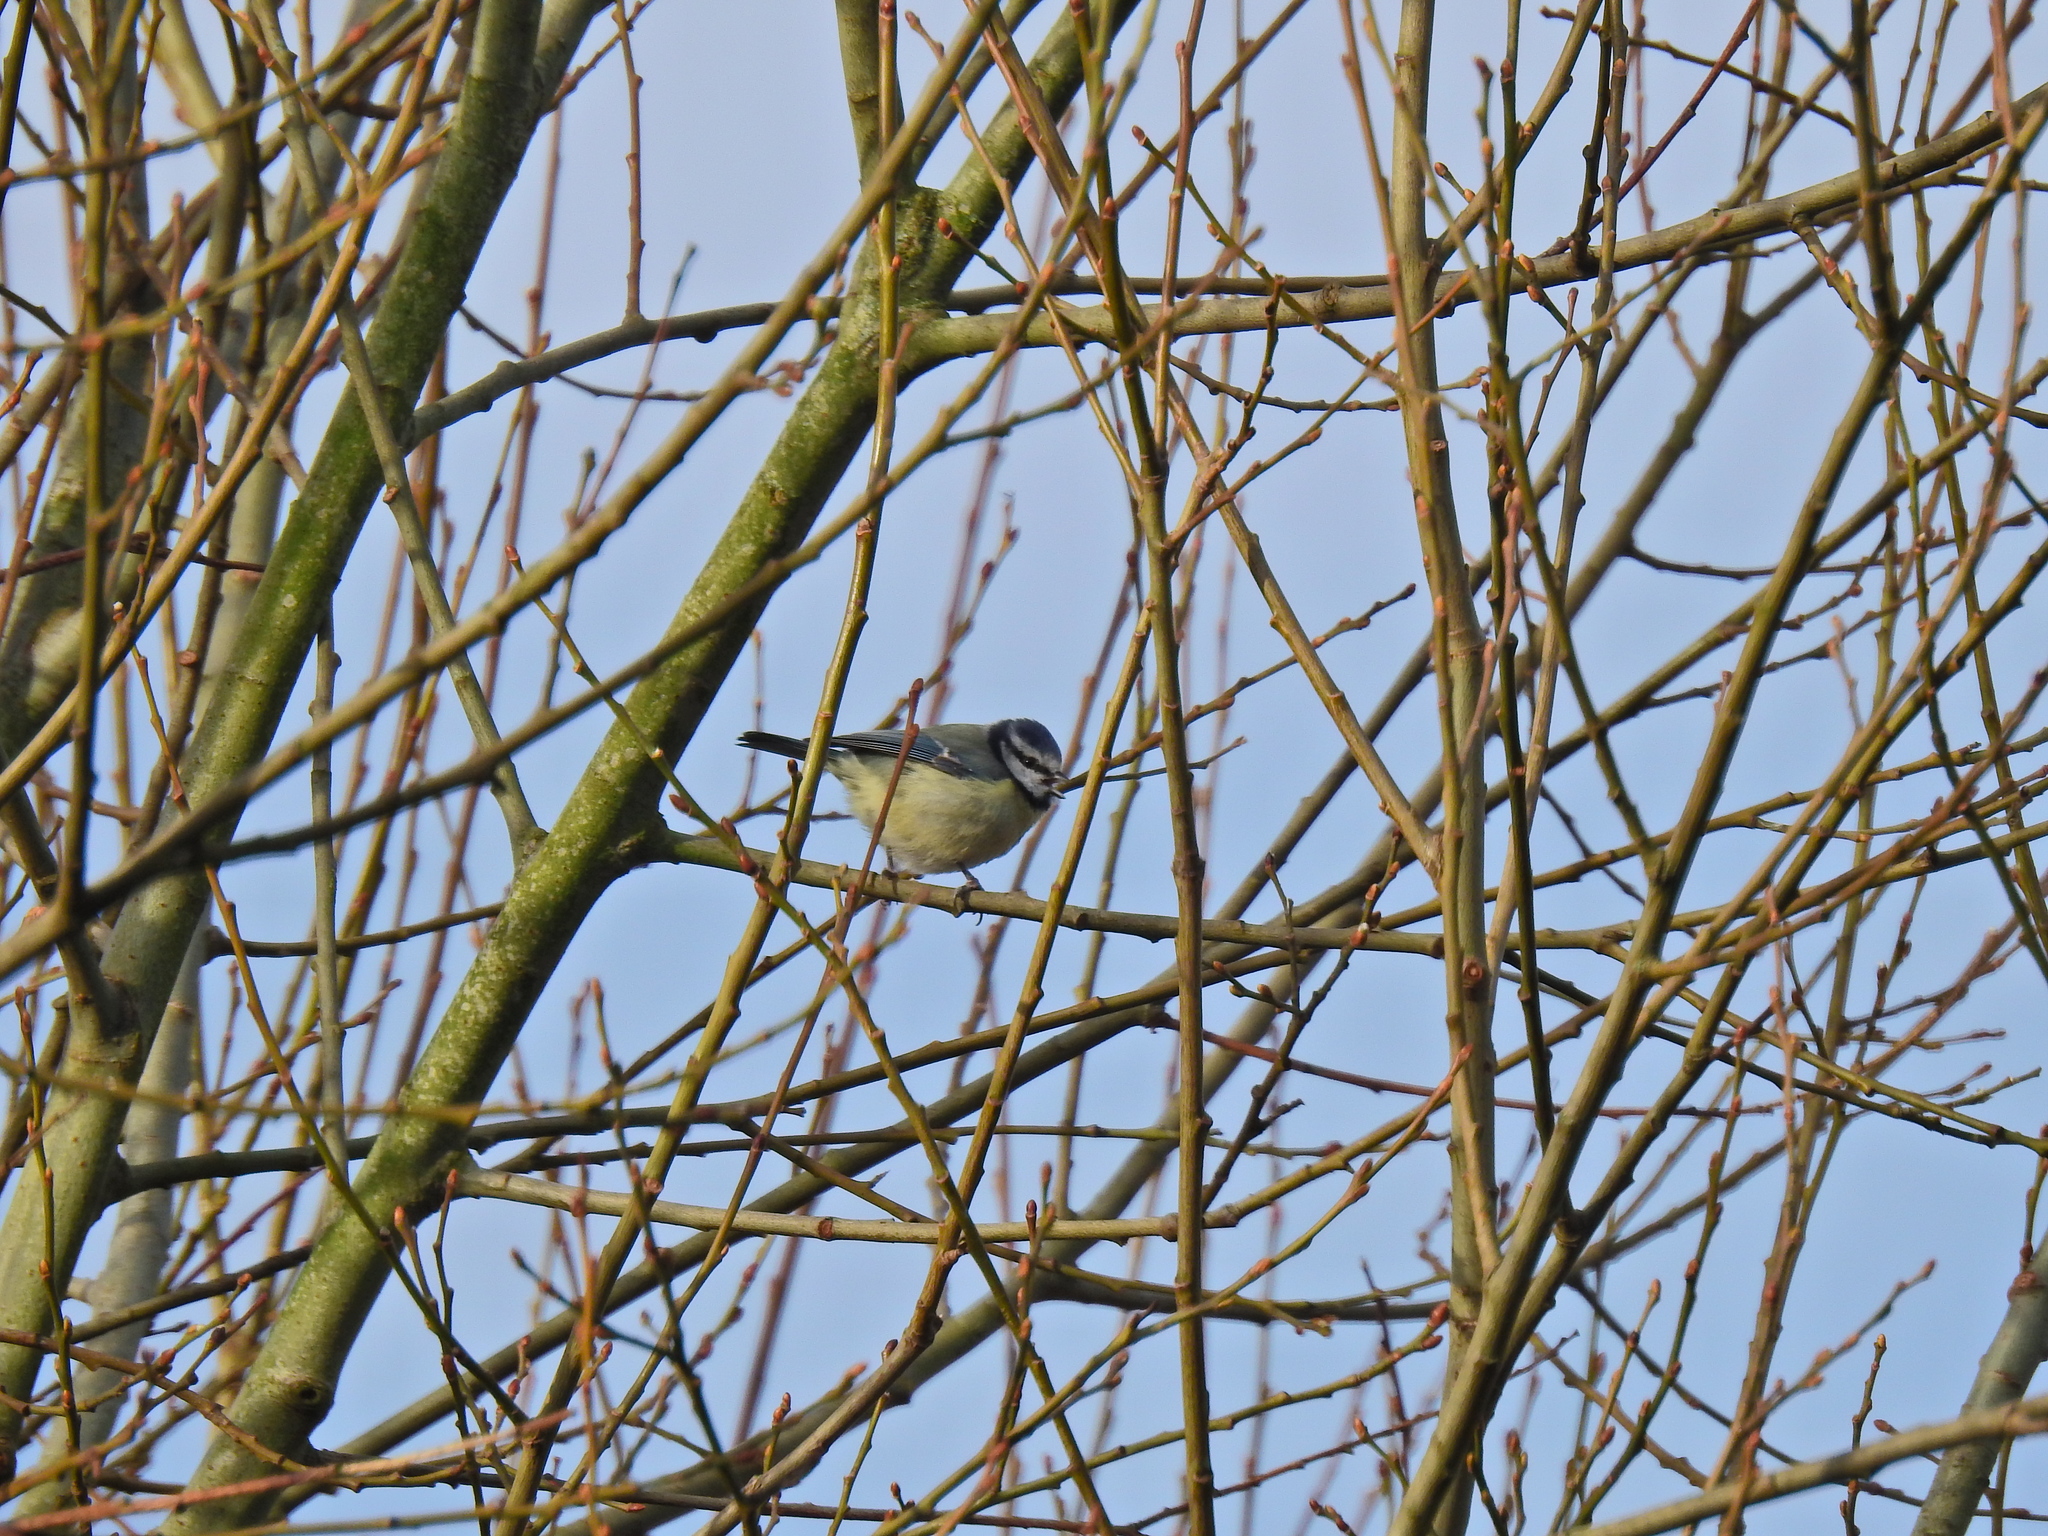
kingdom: Animalia
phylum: Chordata
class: Aves
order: Passeriformes
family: Paridae
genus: Cyanistes
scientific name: Cyanistes caeruleus
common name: Eurasian blue tit
